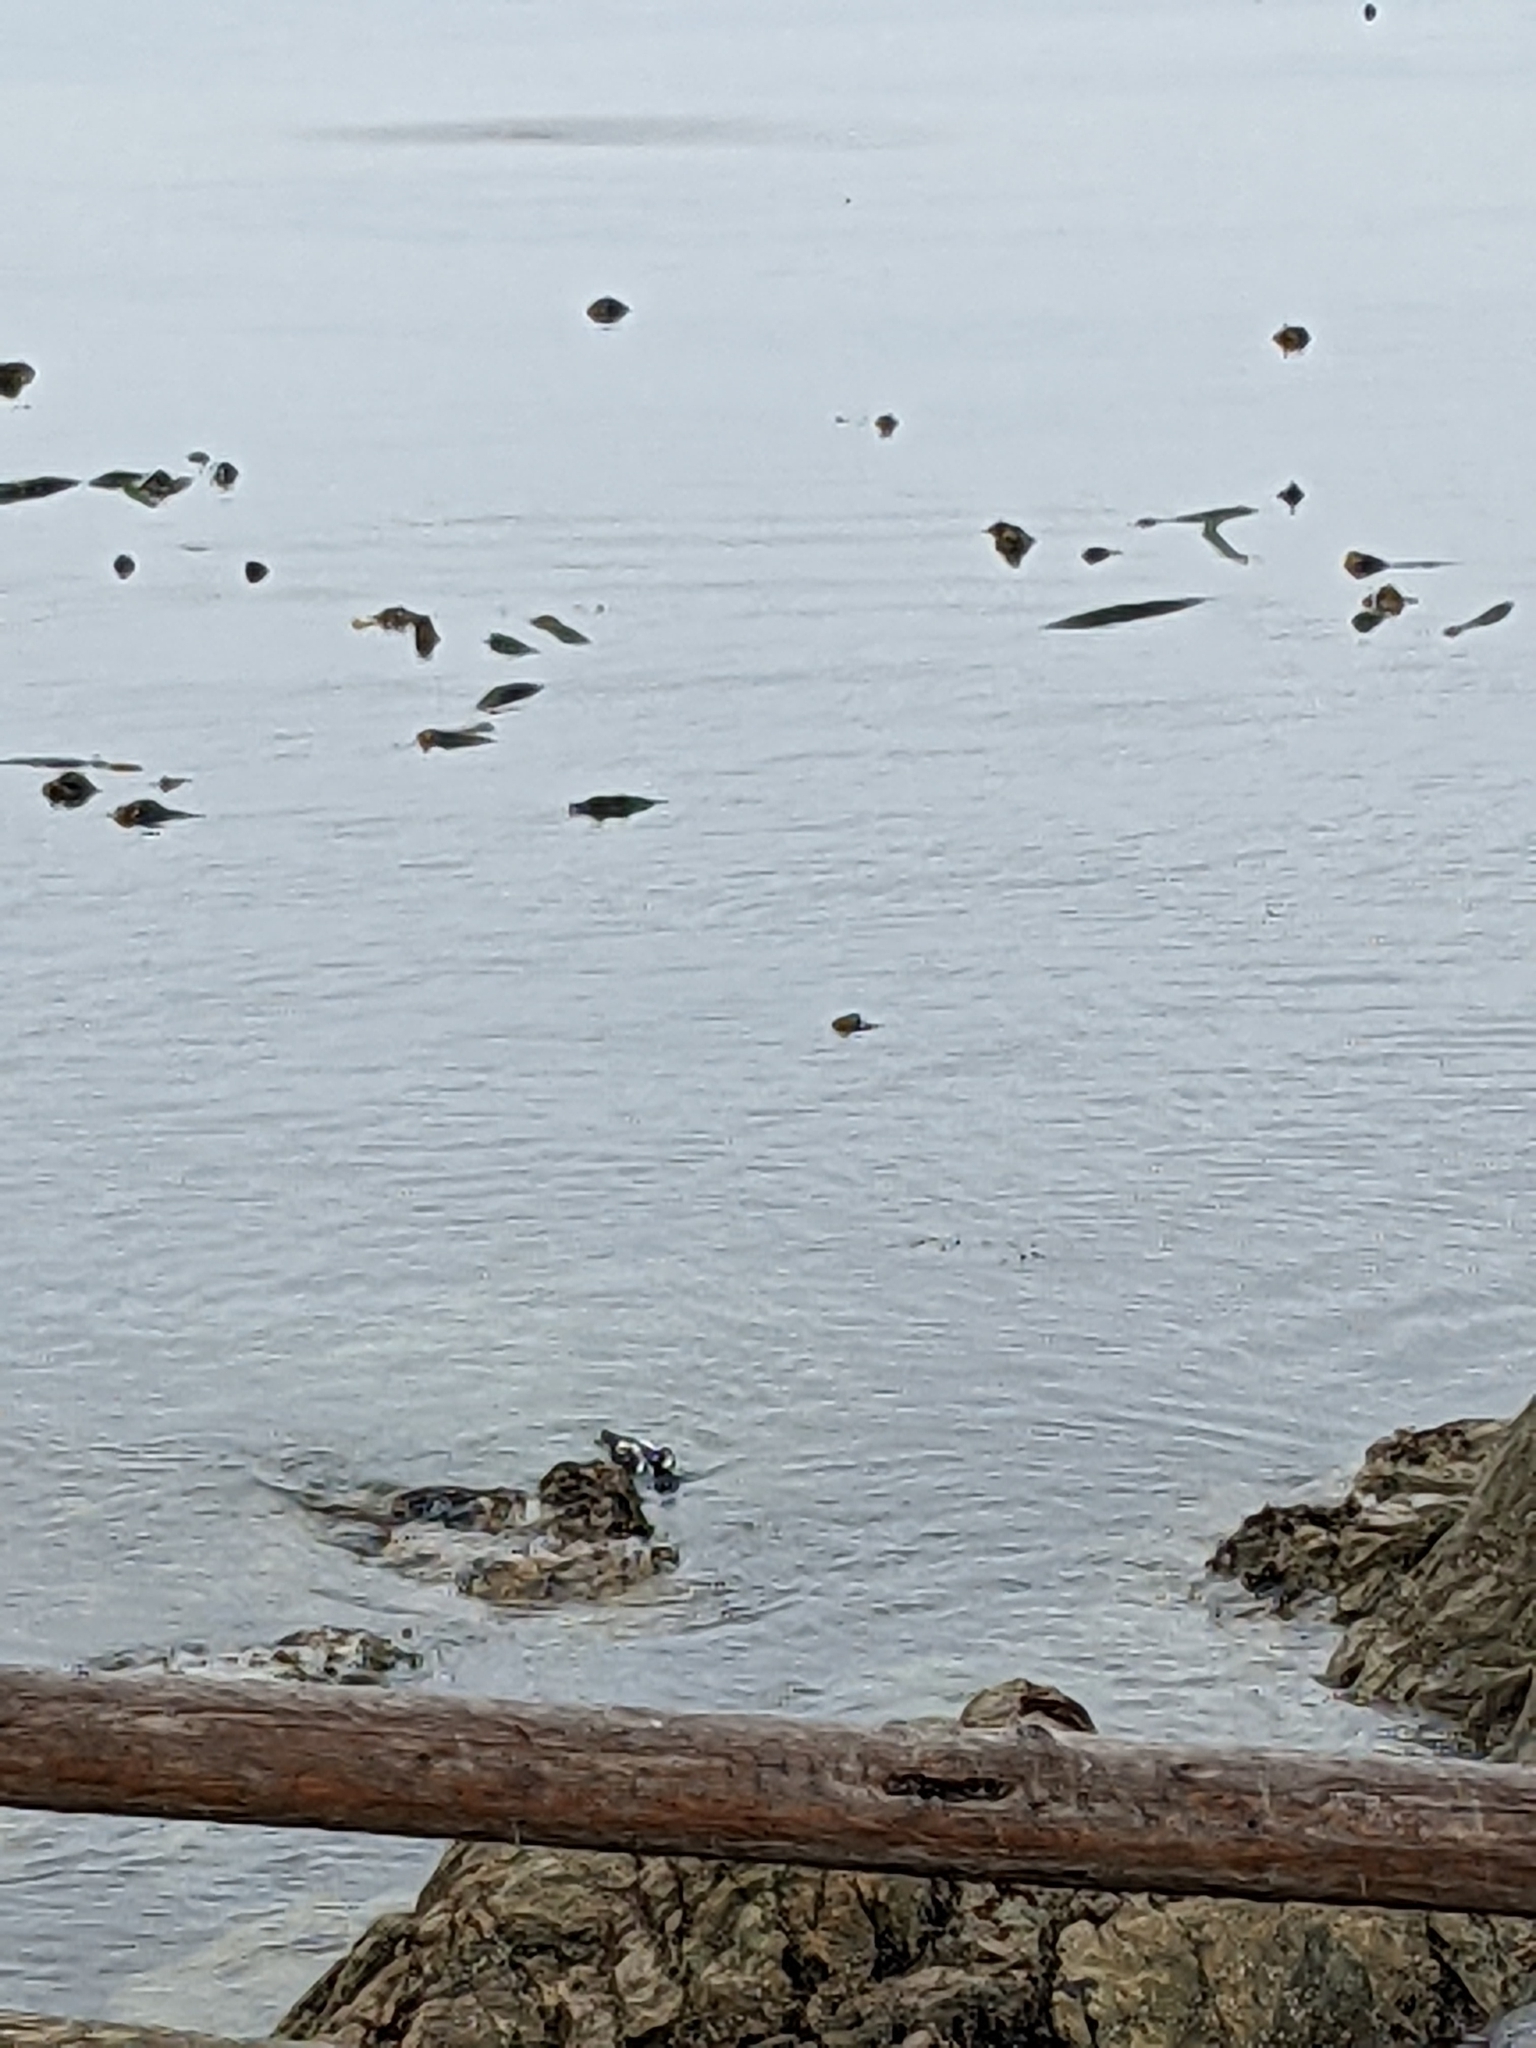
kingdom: Animalia
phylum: Chordata
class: Aves
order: Anseriformes
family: Anatidae
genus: Histrionicus
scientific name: Histrionicus histrionicus
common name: Harlequin duck
